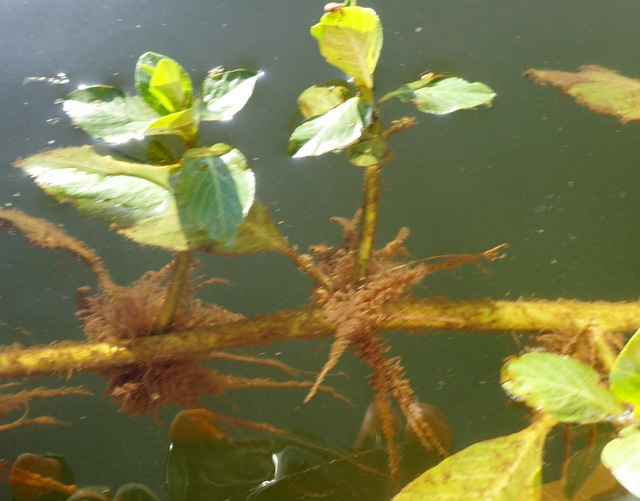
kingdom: Plantae
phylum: Tracheophyta
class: Magnoliopsida
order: Myrtales
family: Onagraceae
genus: Ludwigia
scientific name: Ludwigia peploides
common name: Floating primrose-willow
